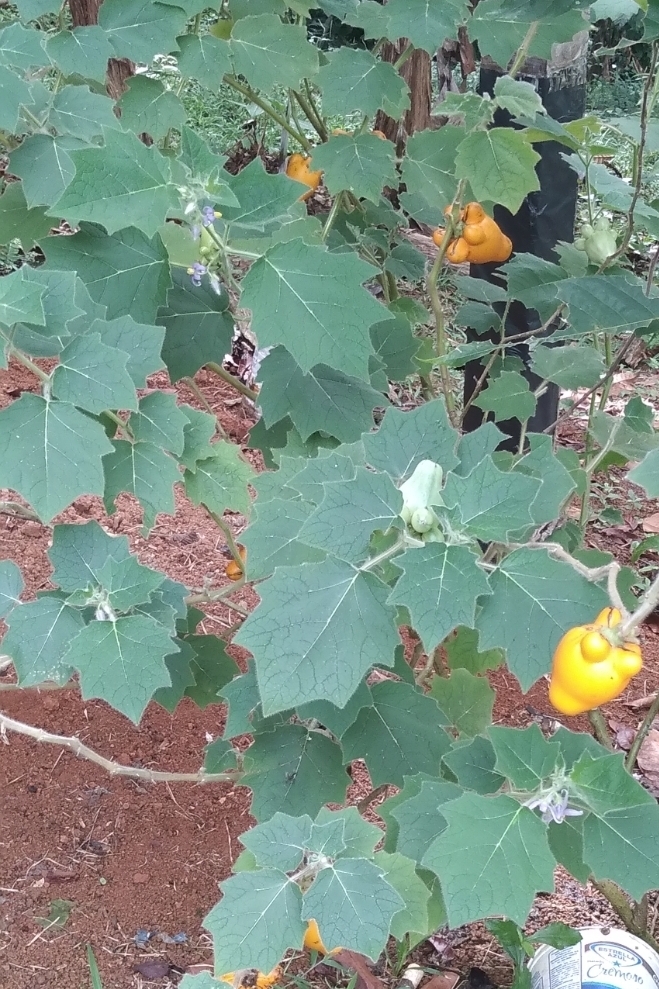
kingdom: Plantae
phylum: Tracheophyta
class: Magnoliopsida
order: Solanales
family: Solanaceae
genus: Solanum
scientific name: Solanum mammosum
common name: Nipple fruit
